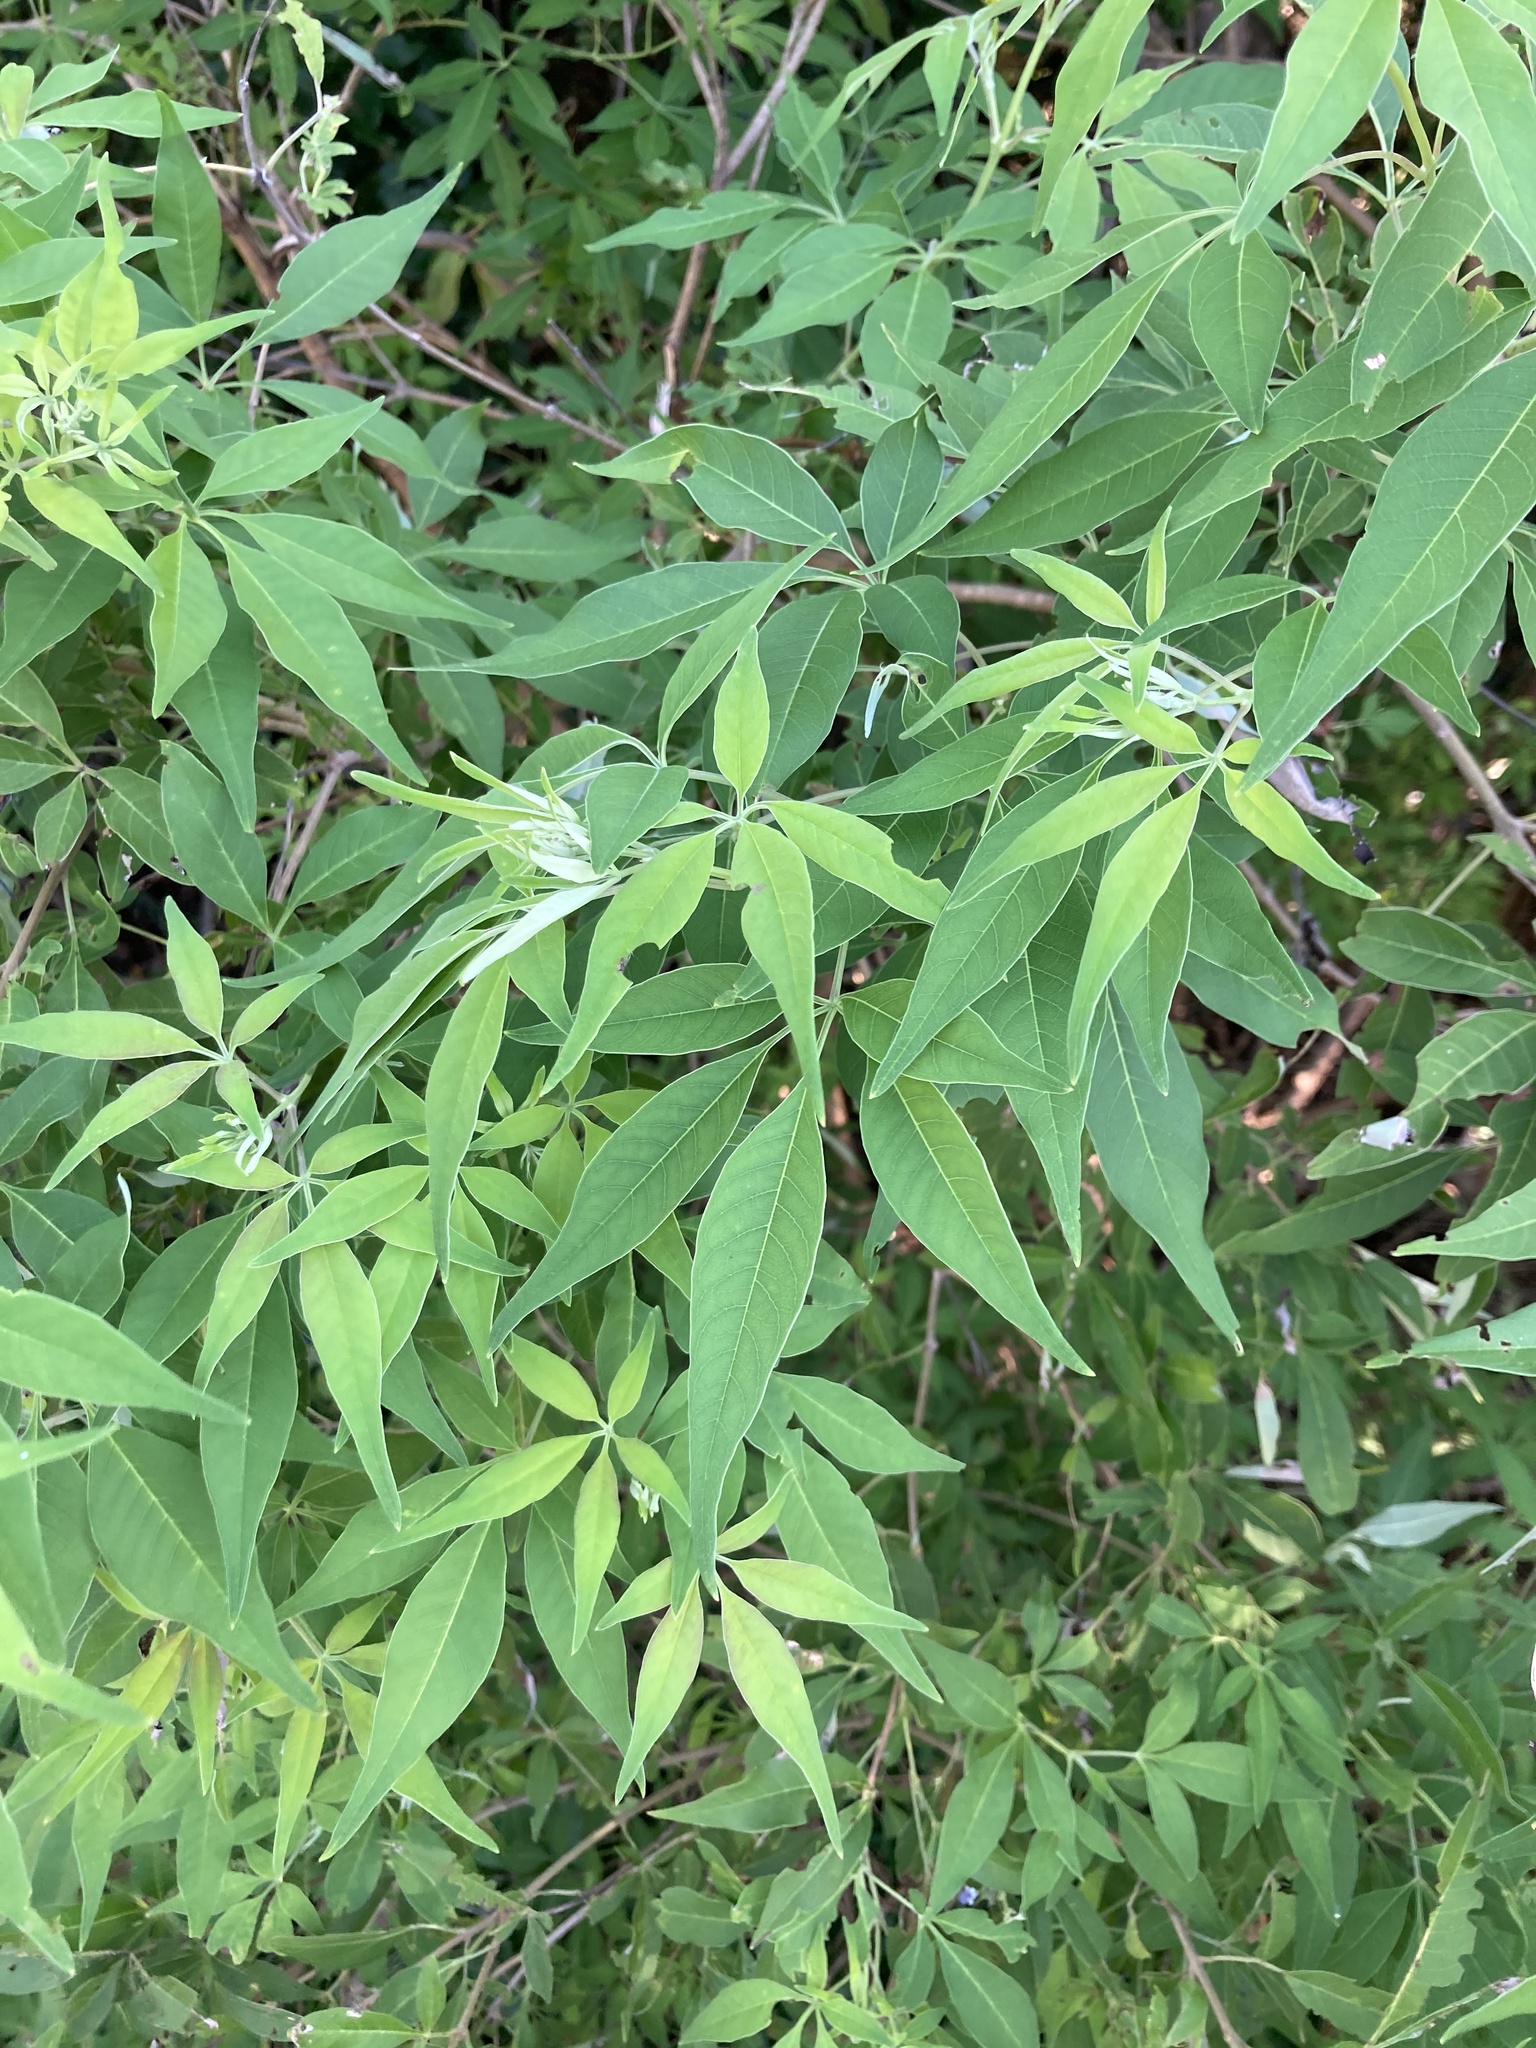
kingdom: Plantae
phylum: Tracheophyta
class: Magnoliopsida
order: Lamiales
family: Lamiaceae
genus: Vitex
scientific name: Vitex negundo
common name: Chinese chastetree
